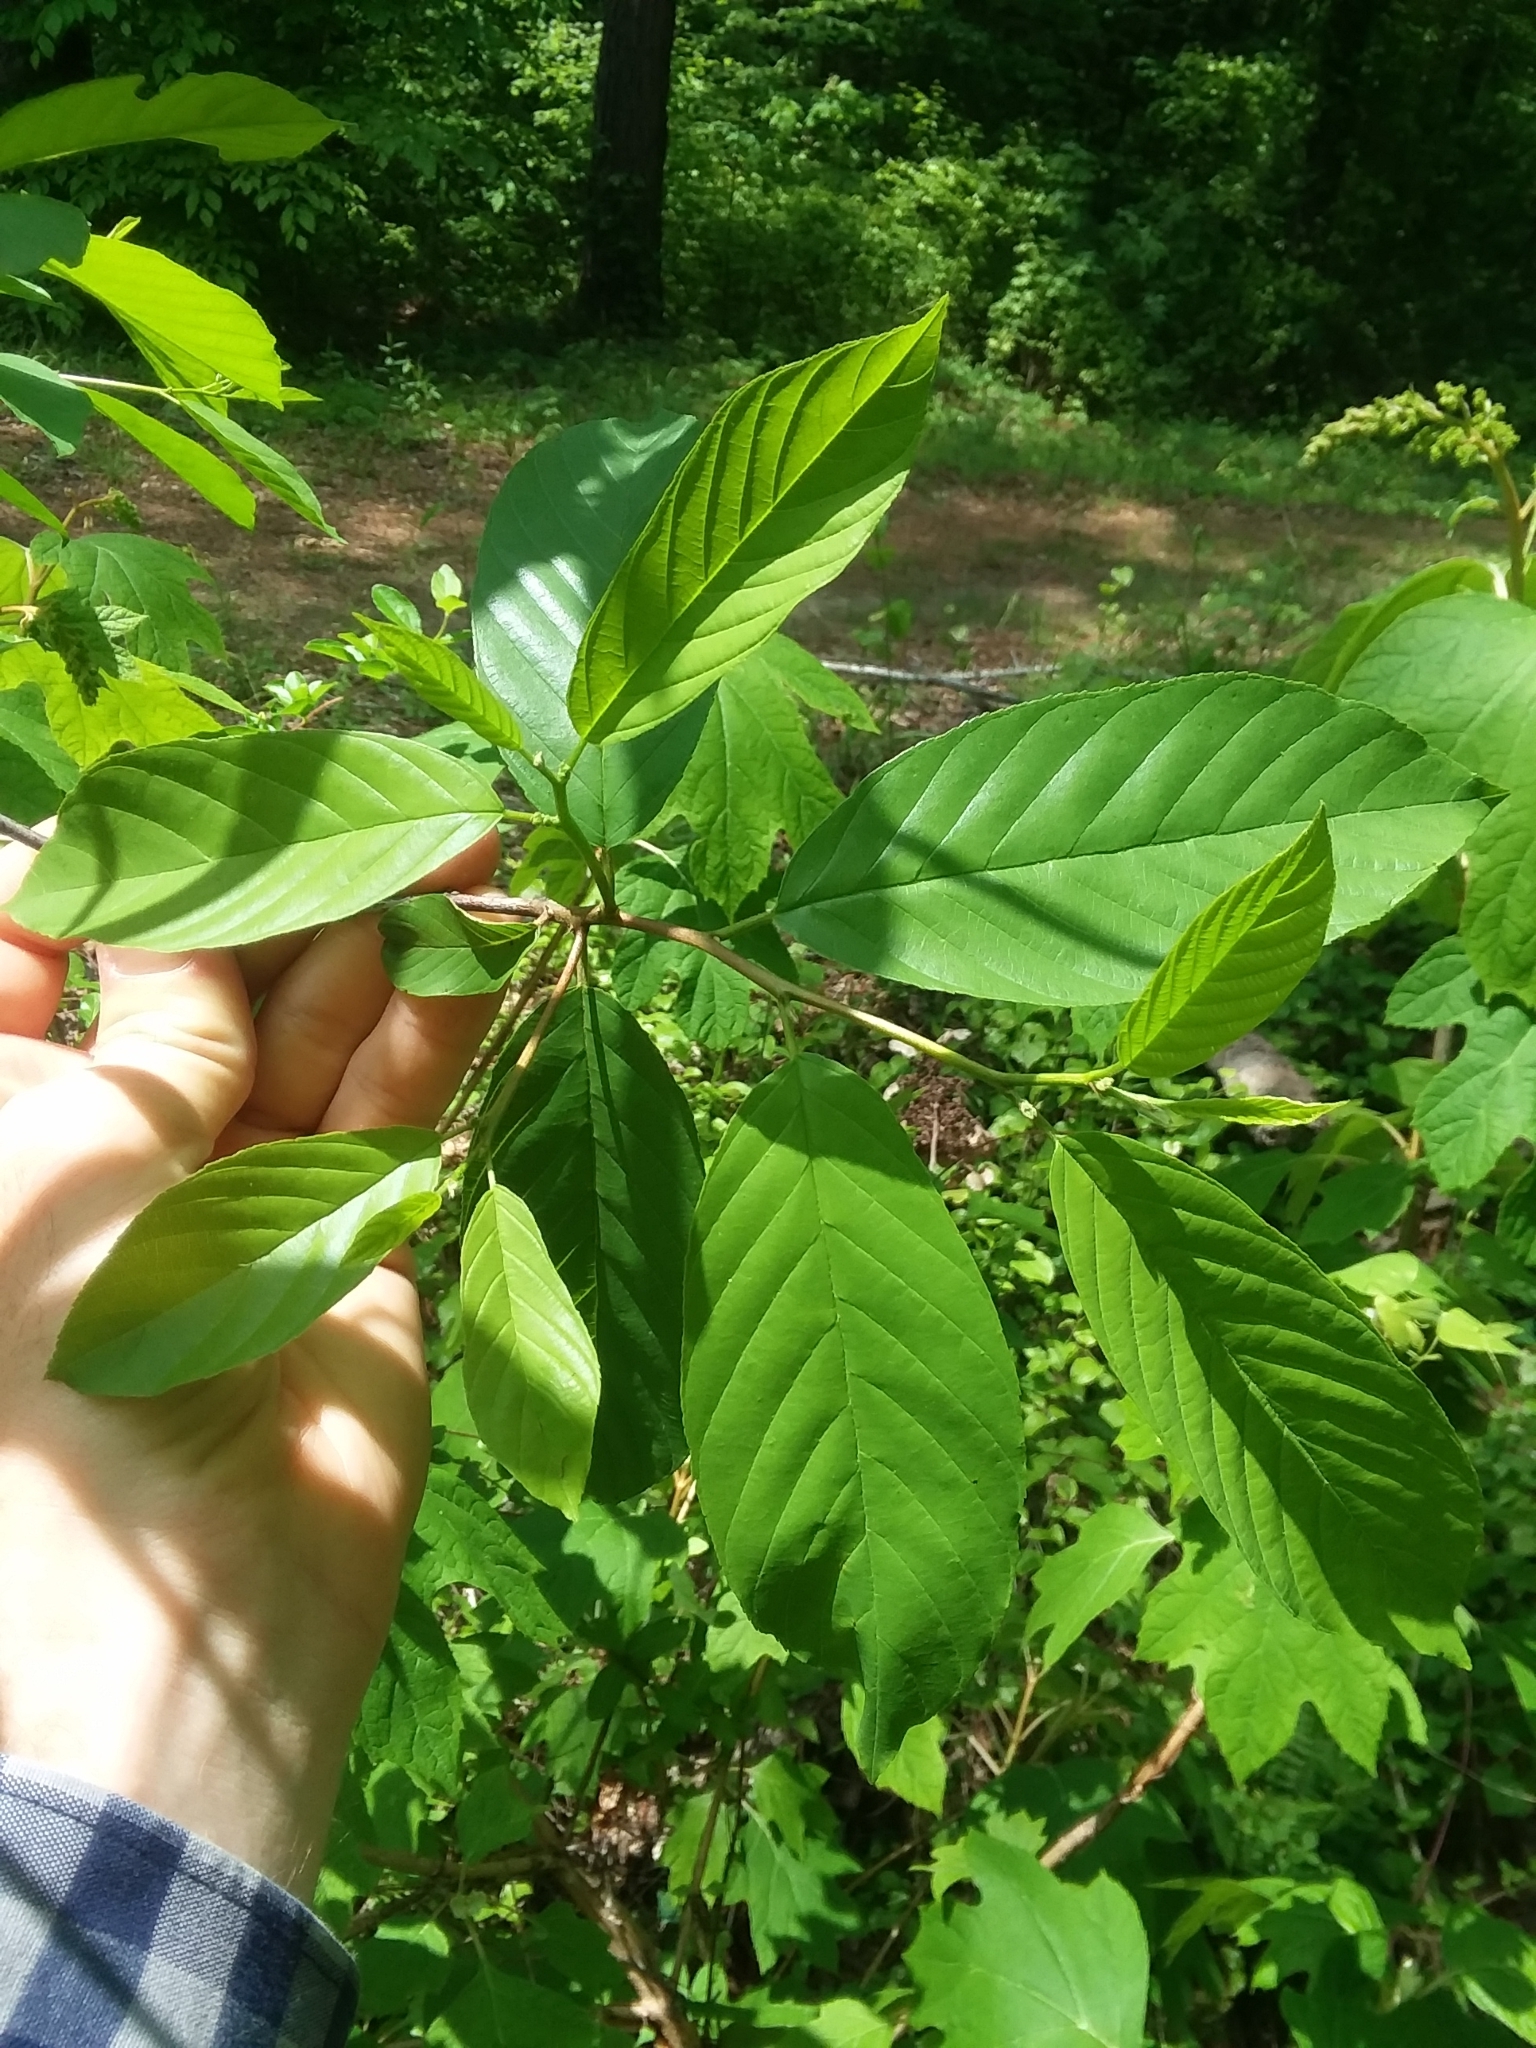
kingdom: Plantae
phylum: Tracheophyta
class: Magnoliopsida
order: Rosales
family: Rhamnaceae
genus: Frangula
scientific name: Frangula caroliniana
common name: Carolina buckthorn
